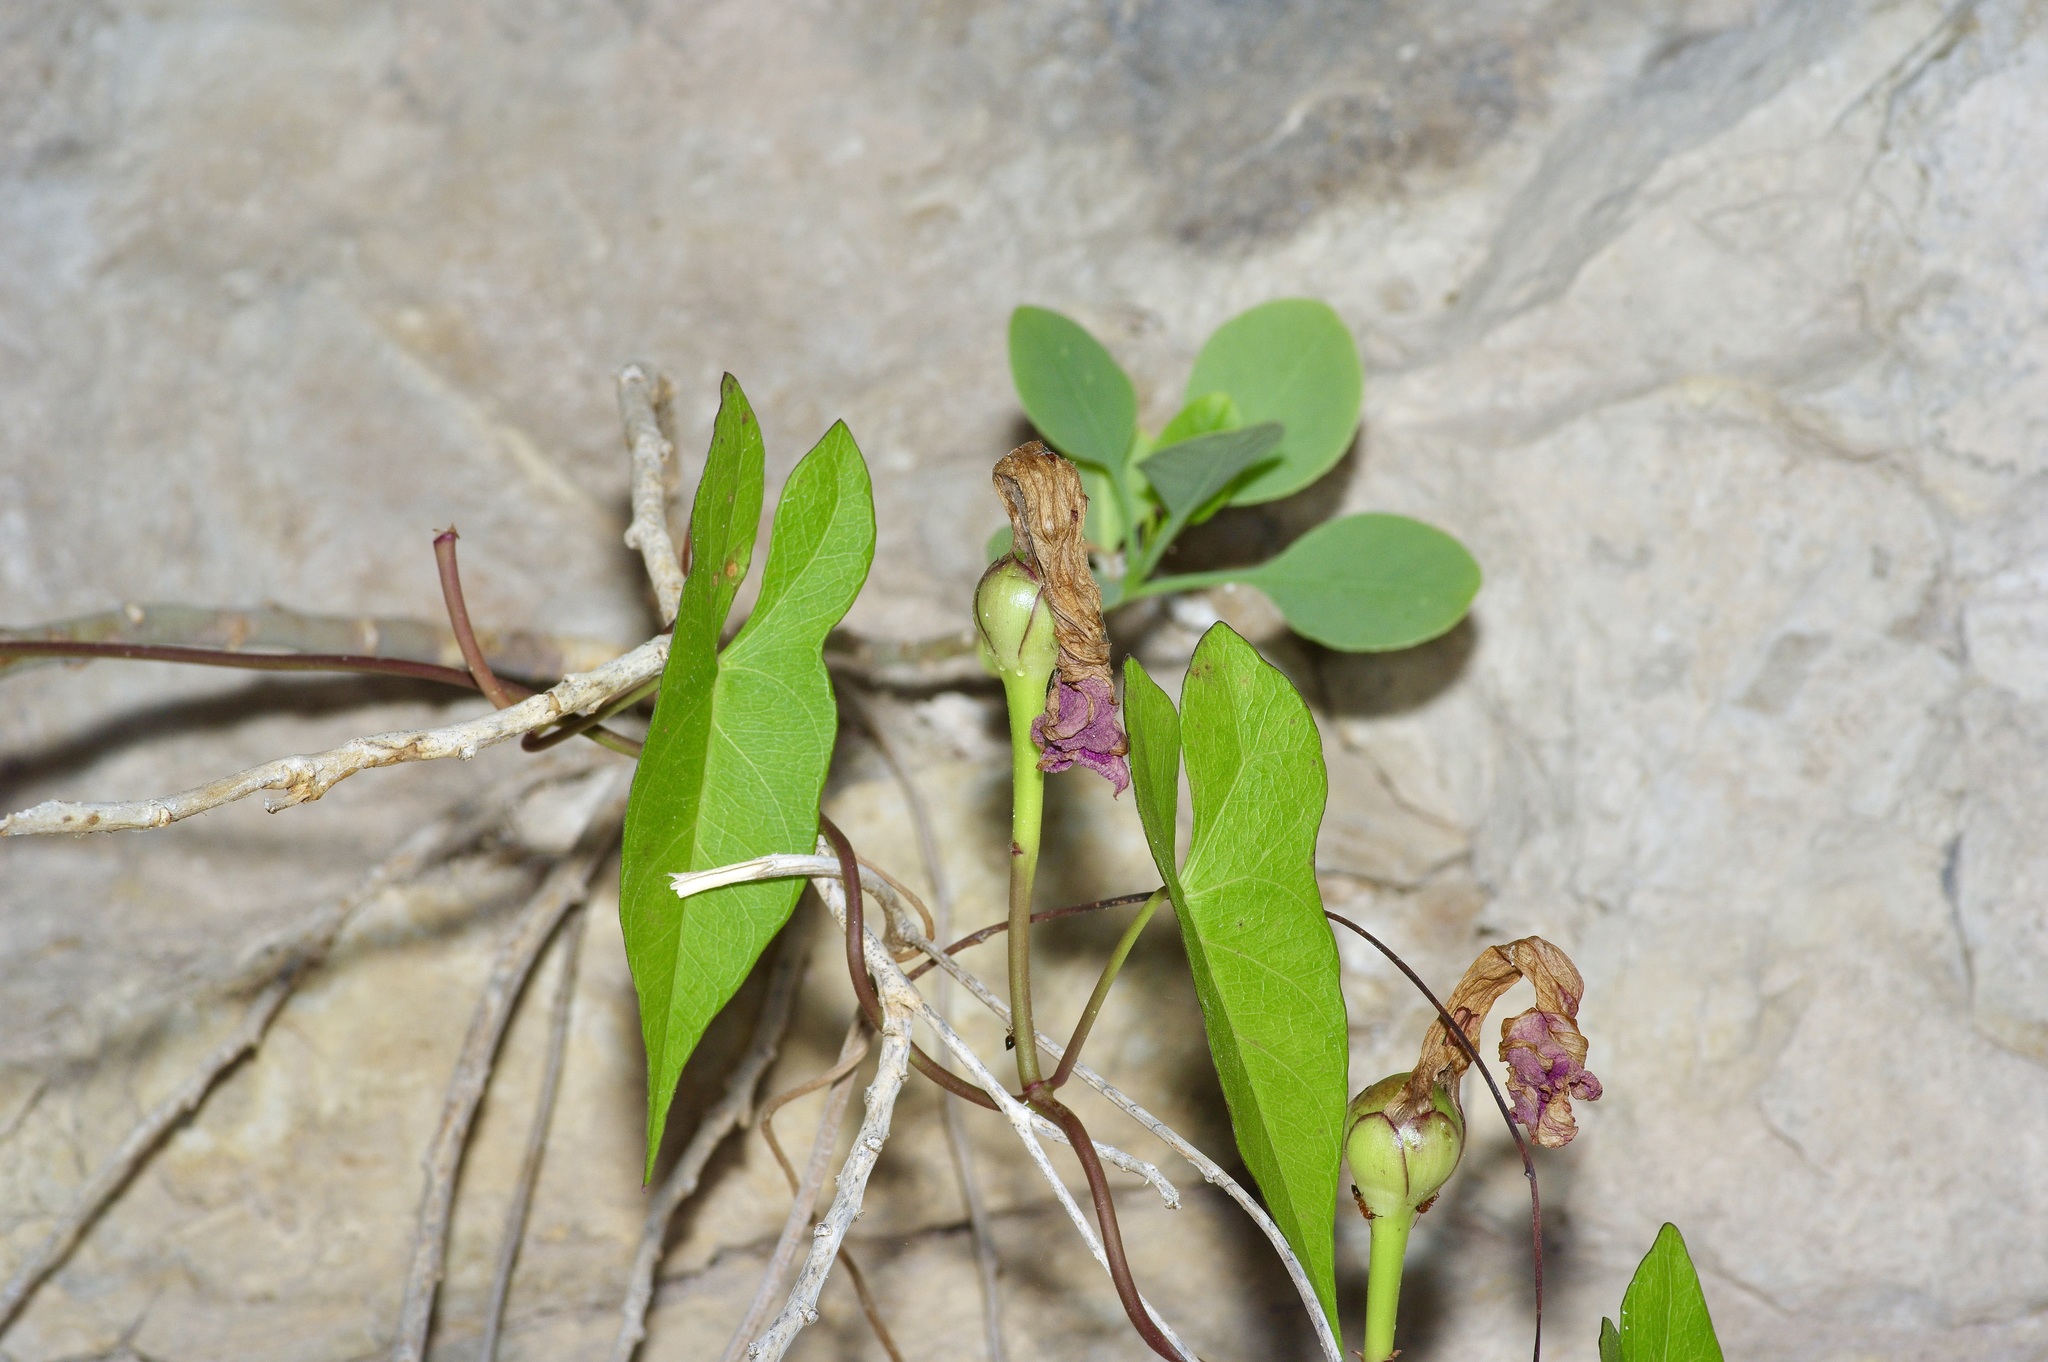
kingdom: Plantae
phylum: Tracheophyta
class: Magnoliopsida
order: Solanales
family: Convolvulaceae
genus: Ipomoea
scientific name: Ipomoea sagittata
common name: Saltmarsh morning glory
